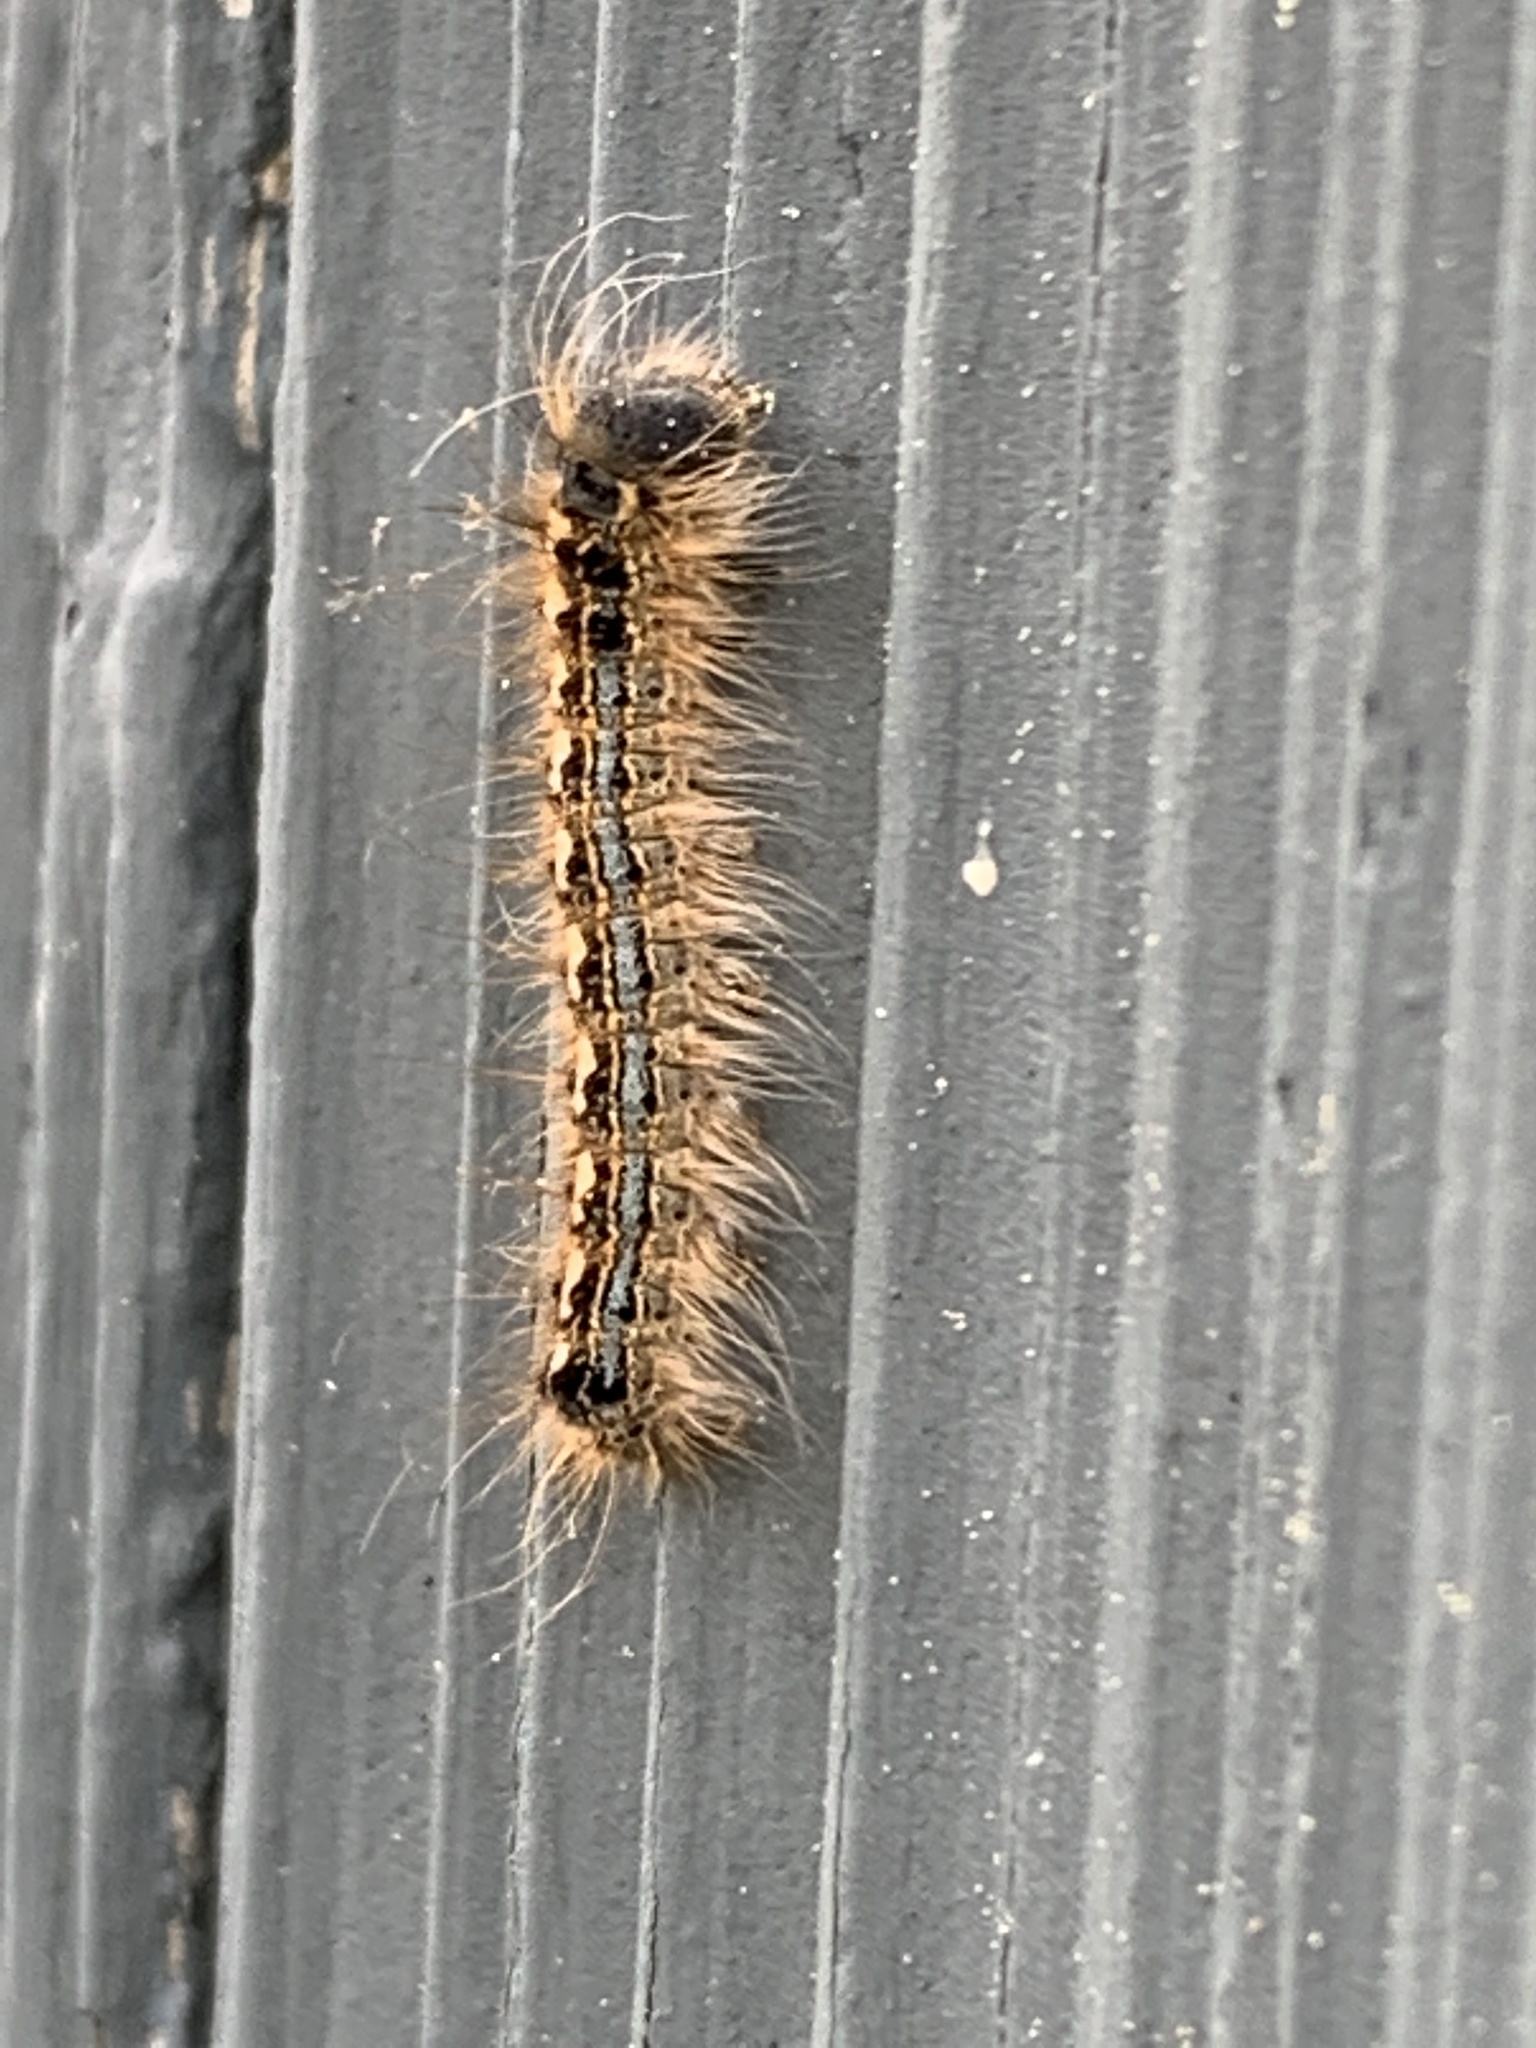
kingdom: Animalia
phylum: Arthropoda
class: Insecta
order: Lepidoptera
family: Lasiocampidae
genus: Malacosoma
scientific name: Malacosoma disstria
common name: Forest tent caterpillar
